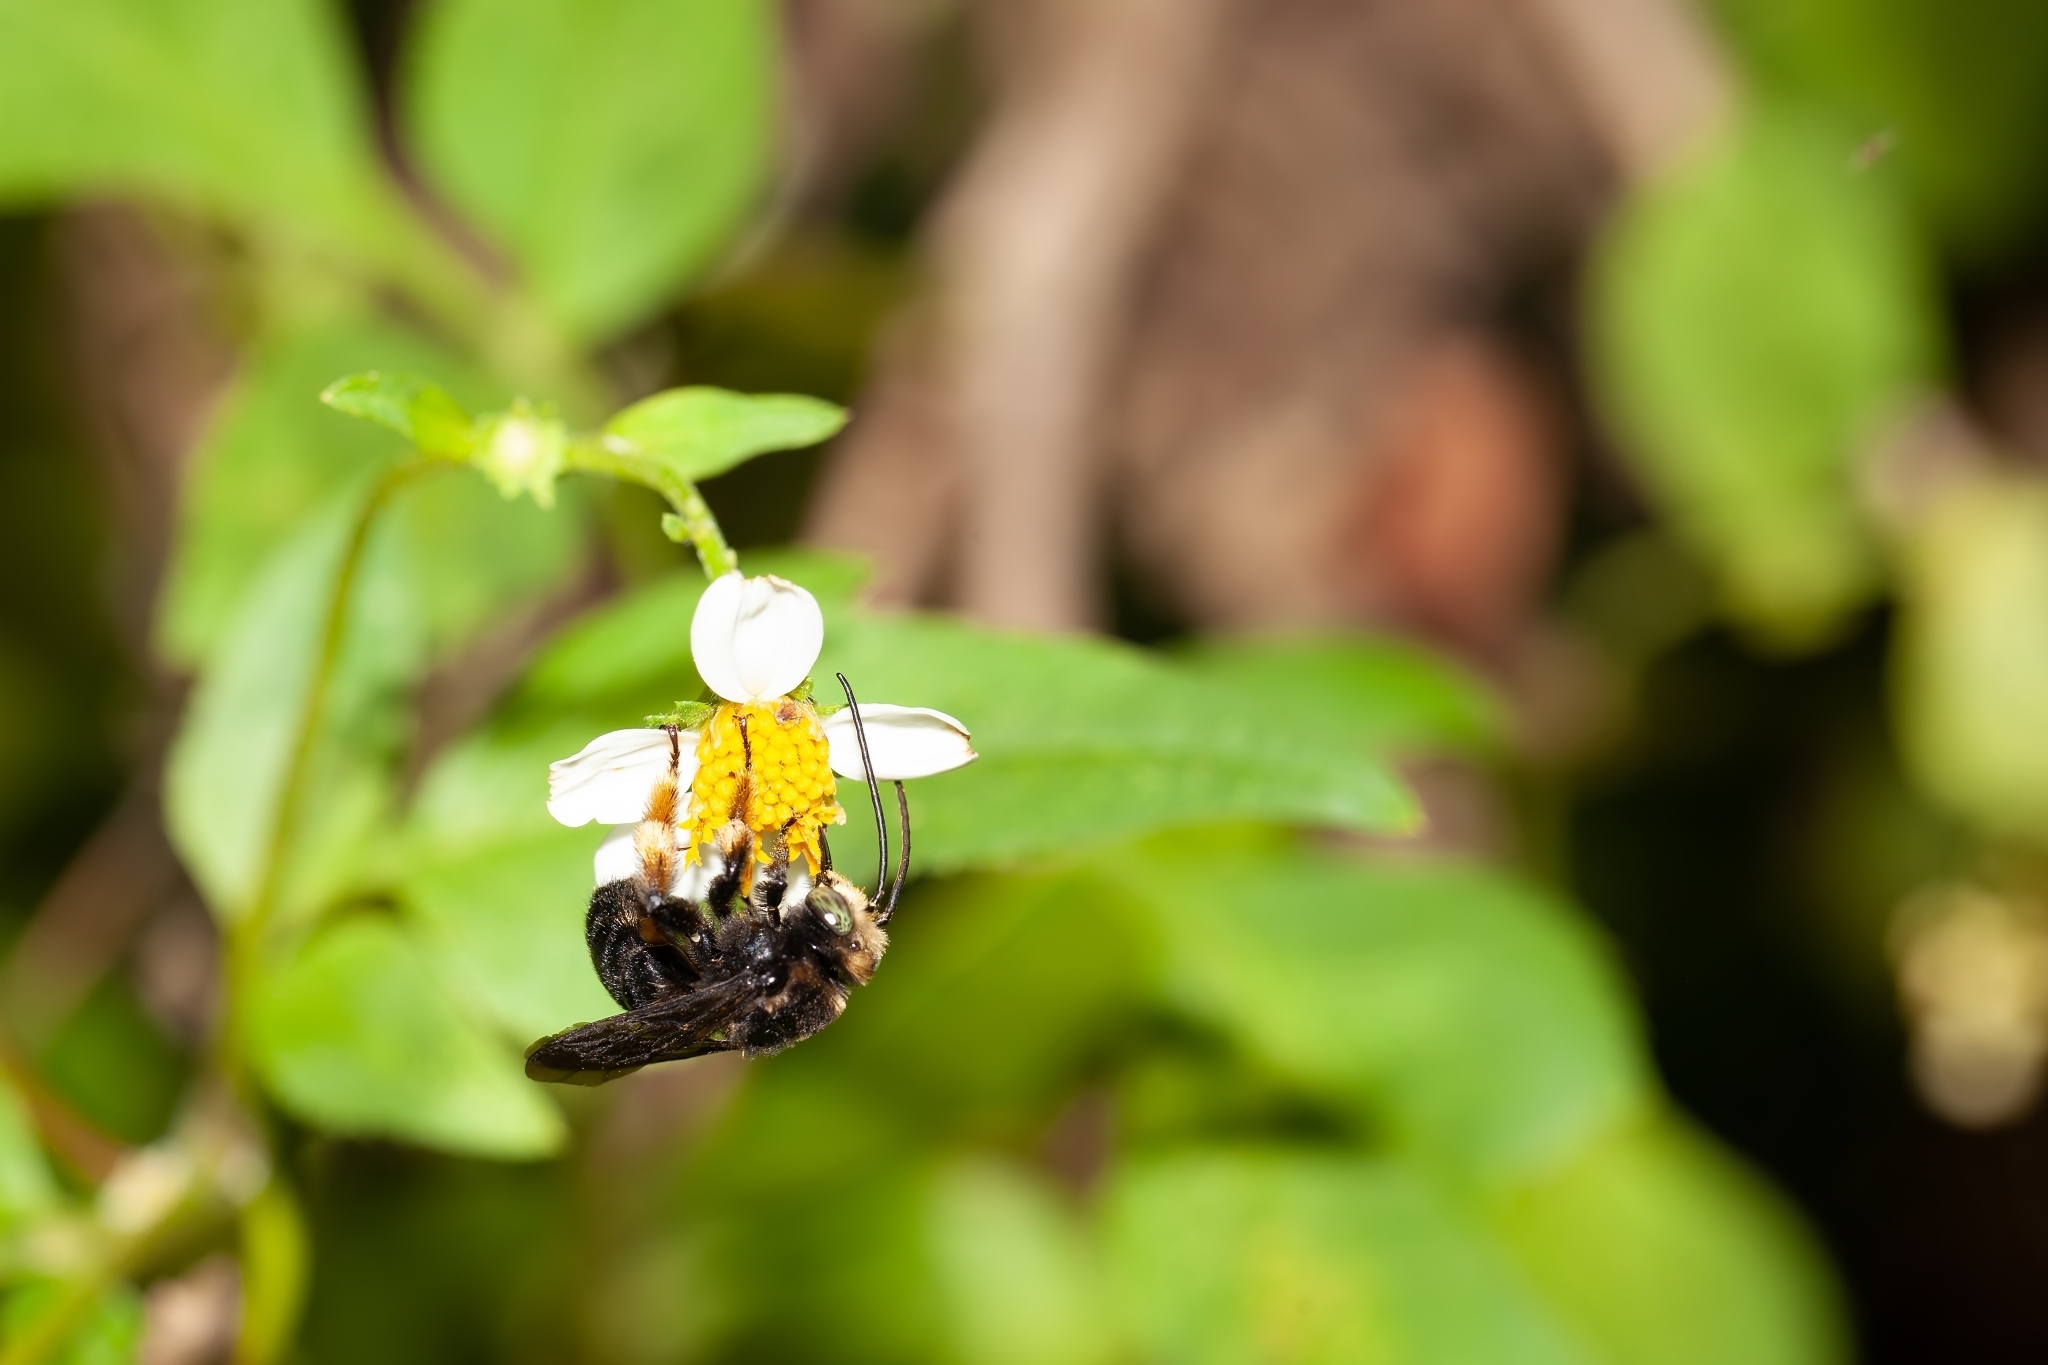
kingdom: Animalia
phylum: Arthropoda
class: Insecta
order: Hymenoptera
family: Apidae
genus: Melissodes
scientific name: Melissodes bimaculatus
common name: Two-spotted long-horned bee
